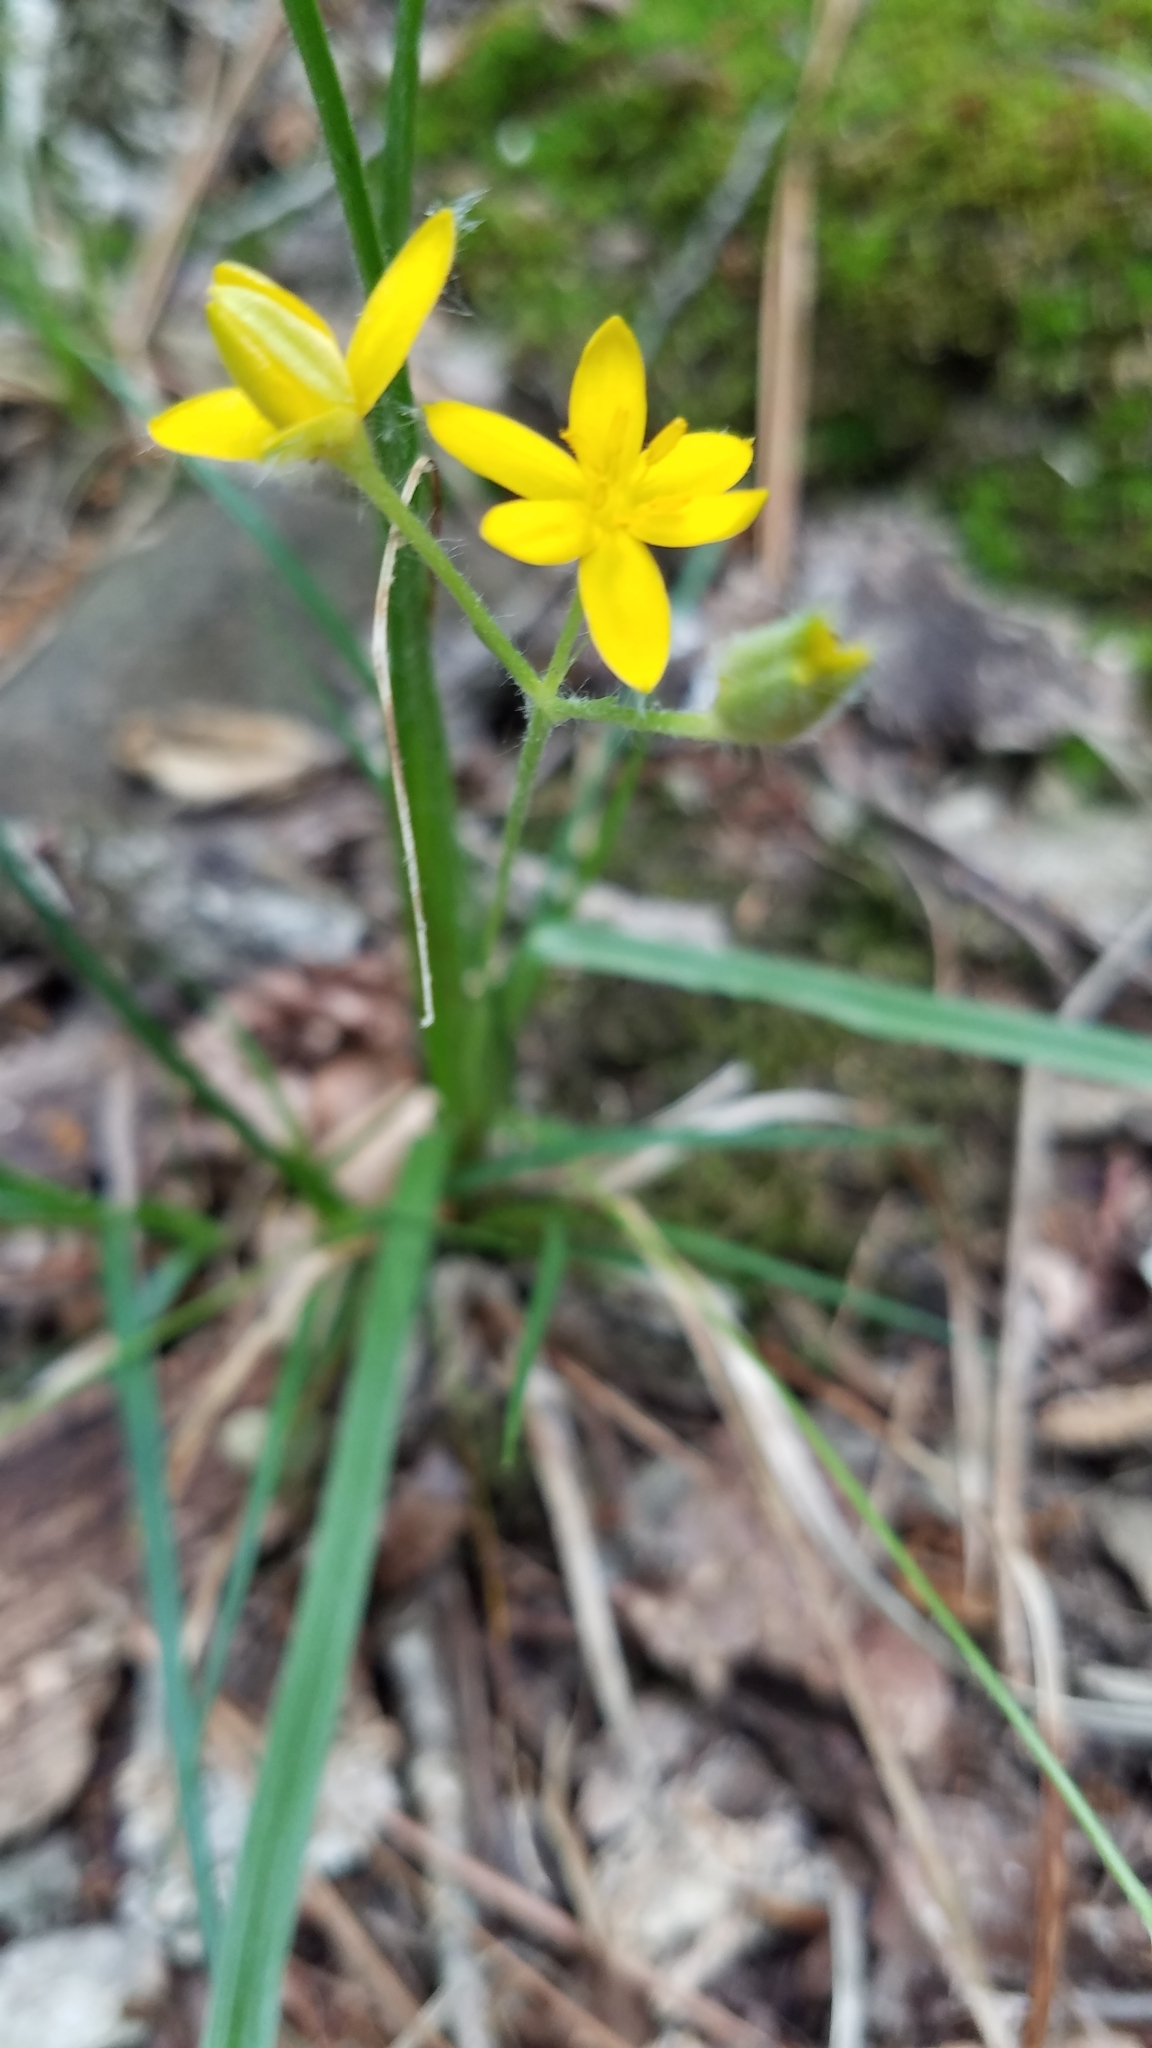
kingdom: Plantae
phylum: Tracheophyta
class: Liliopsida
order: Asparagales
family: Hypoxidaceae
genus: Hypoxis
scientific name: Hypoxis hirsuta
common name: Common goldstar
